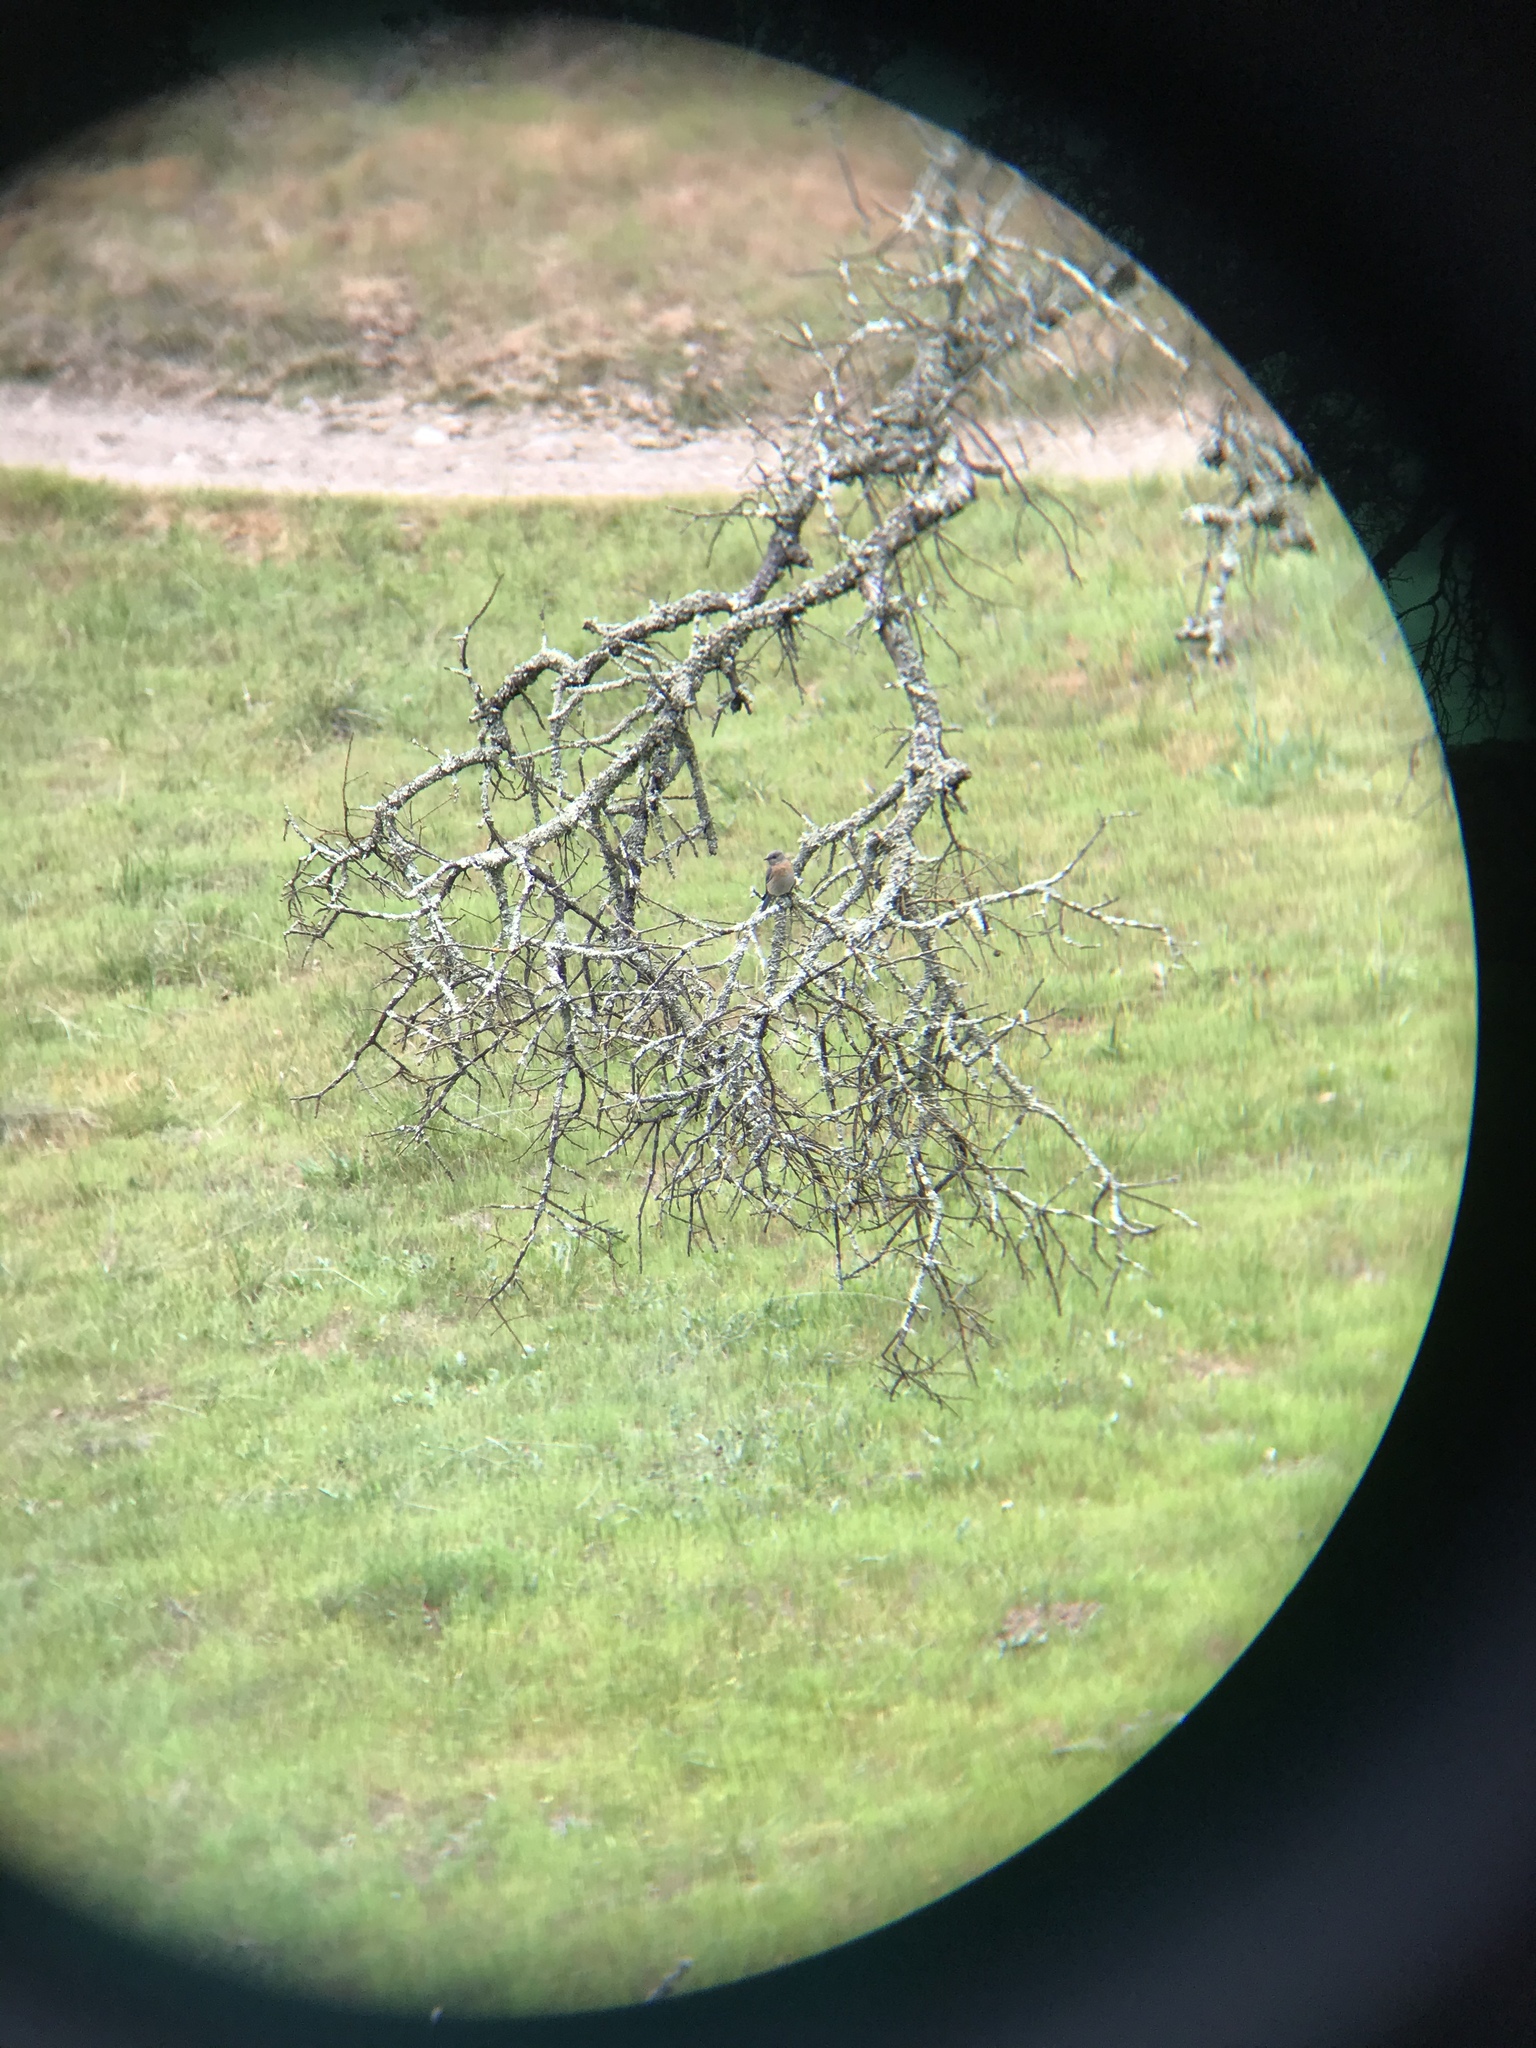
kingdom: Animalia
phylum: Chordata
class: Aves
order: Passeriformes
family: Turdidae
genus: Sialia
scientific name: Sialia mexicana
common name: Western bluebird
